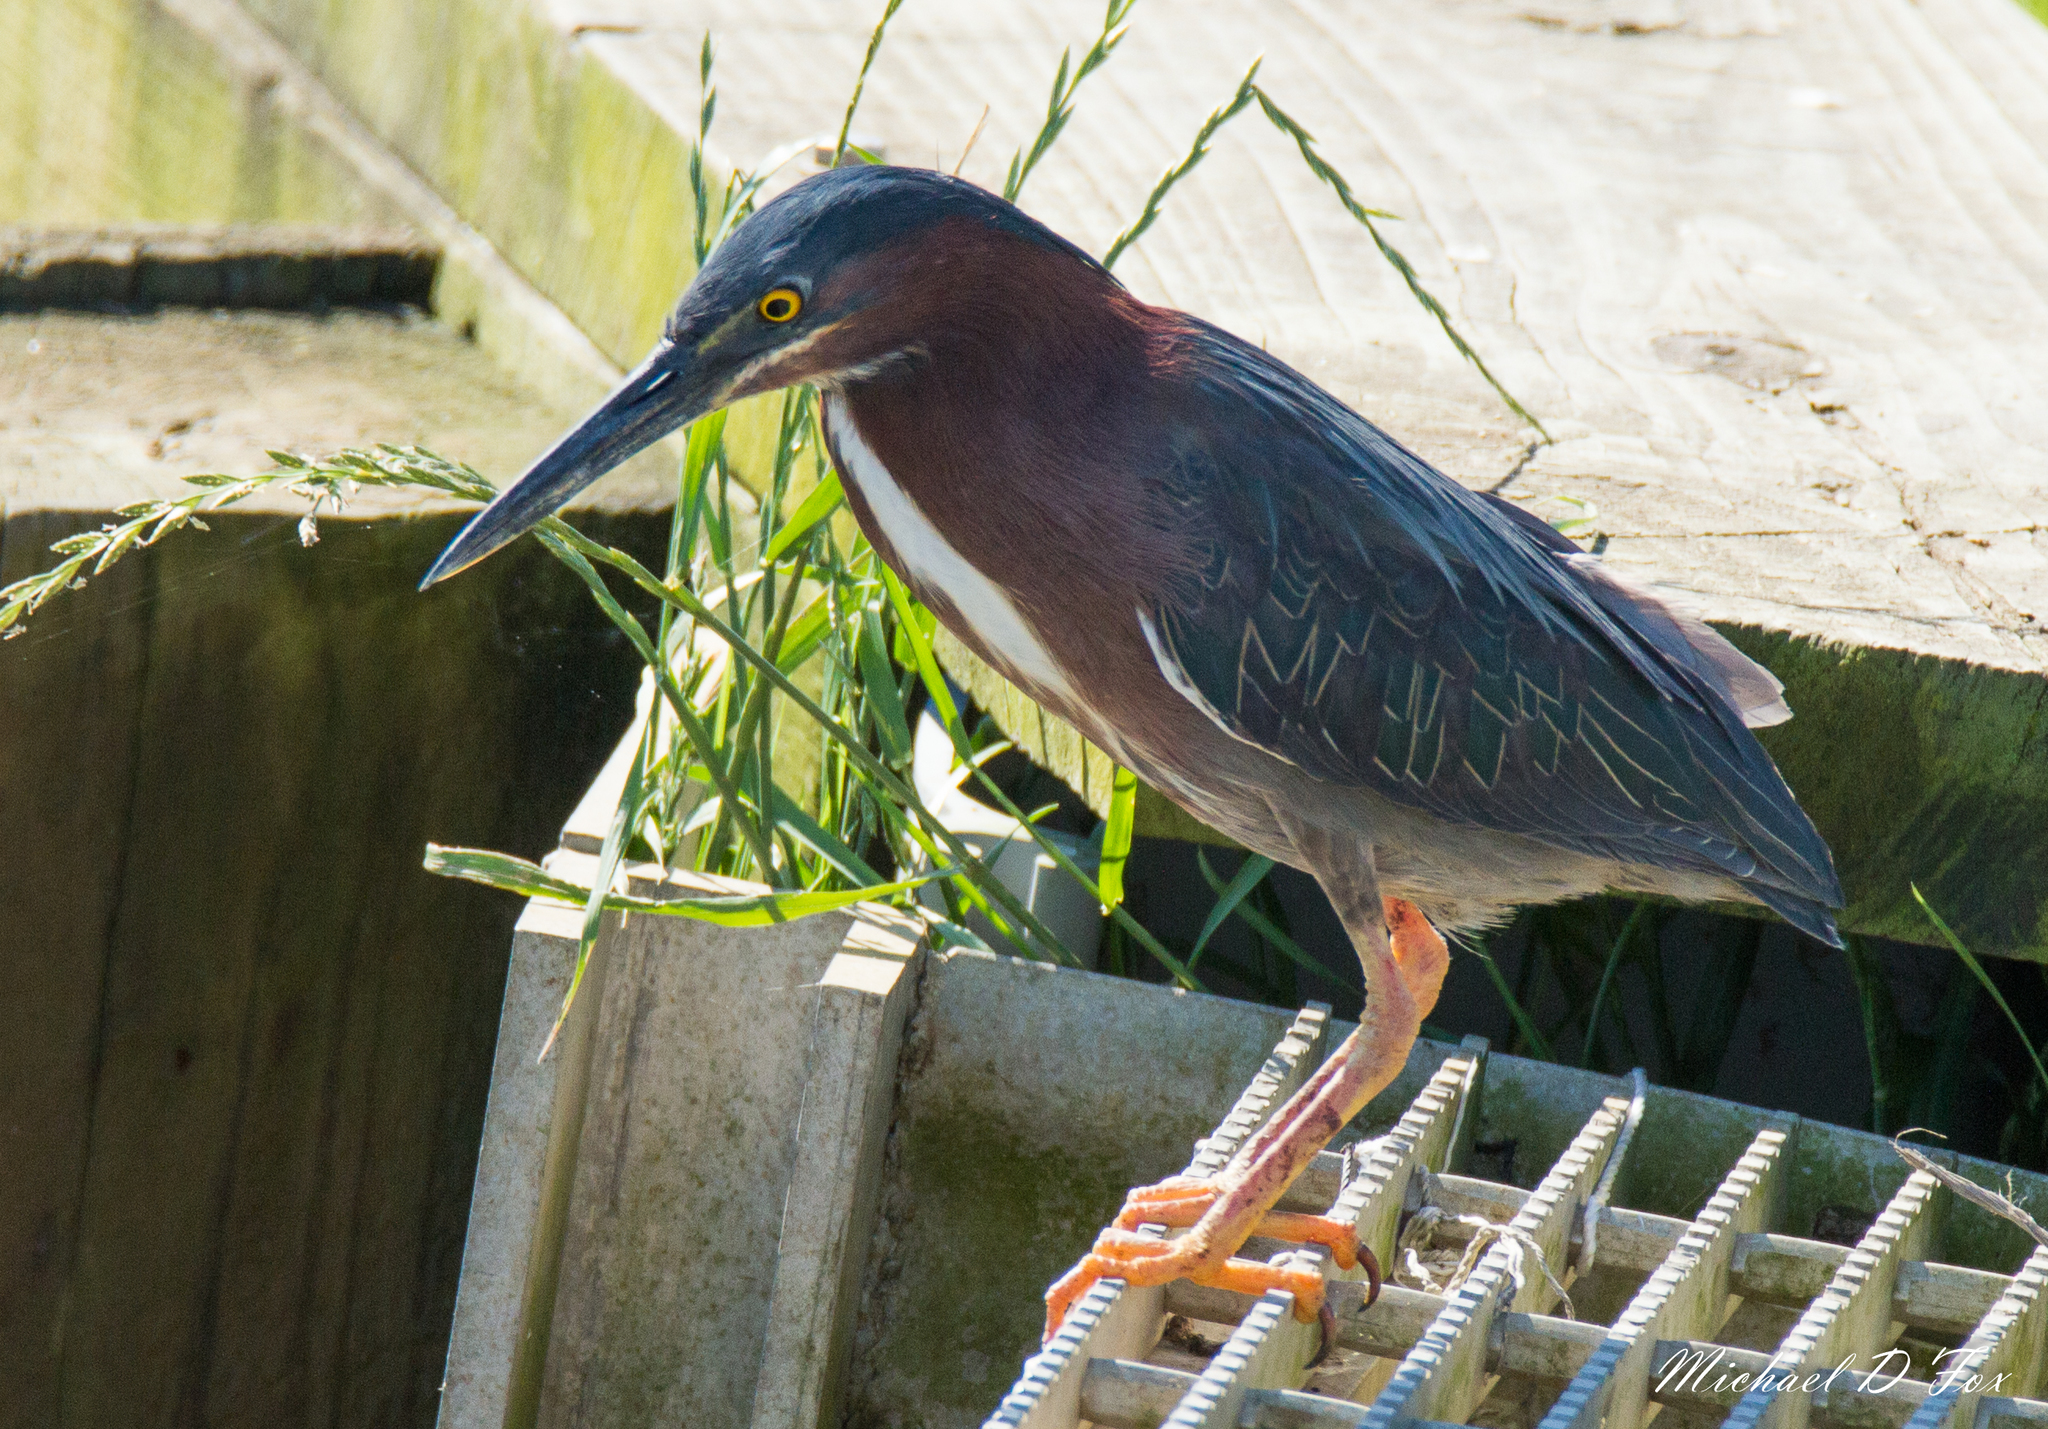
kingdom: Animalia
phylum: Chordata
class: Aves
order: Pelecaniformes
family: Ardeidae
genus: Butorides
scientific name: Butorides virescens
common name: Green heron
